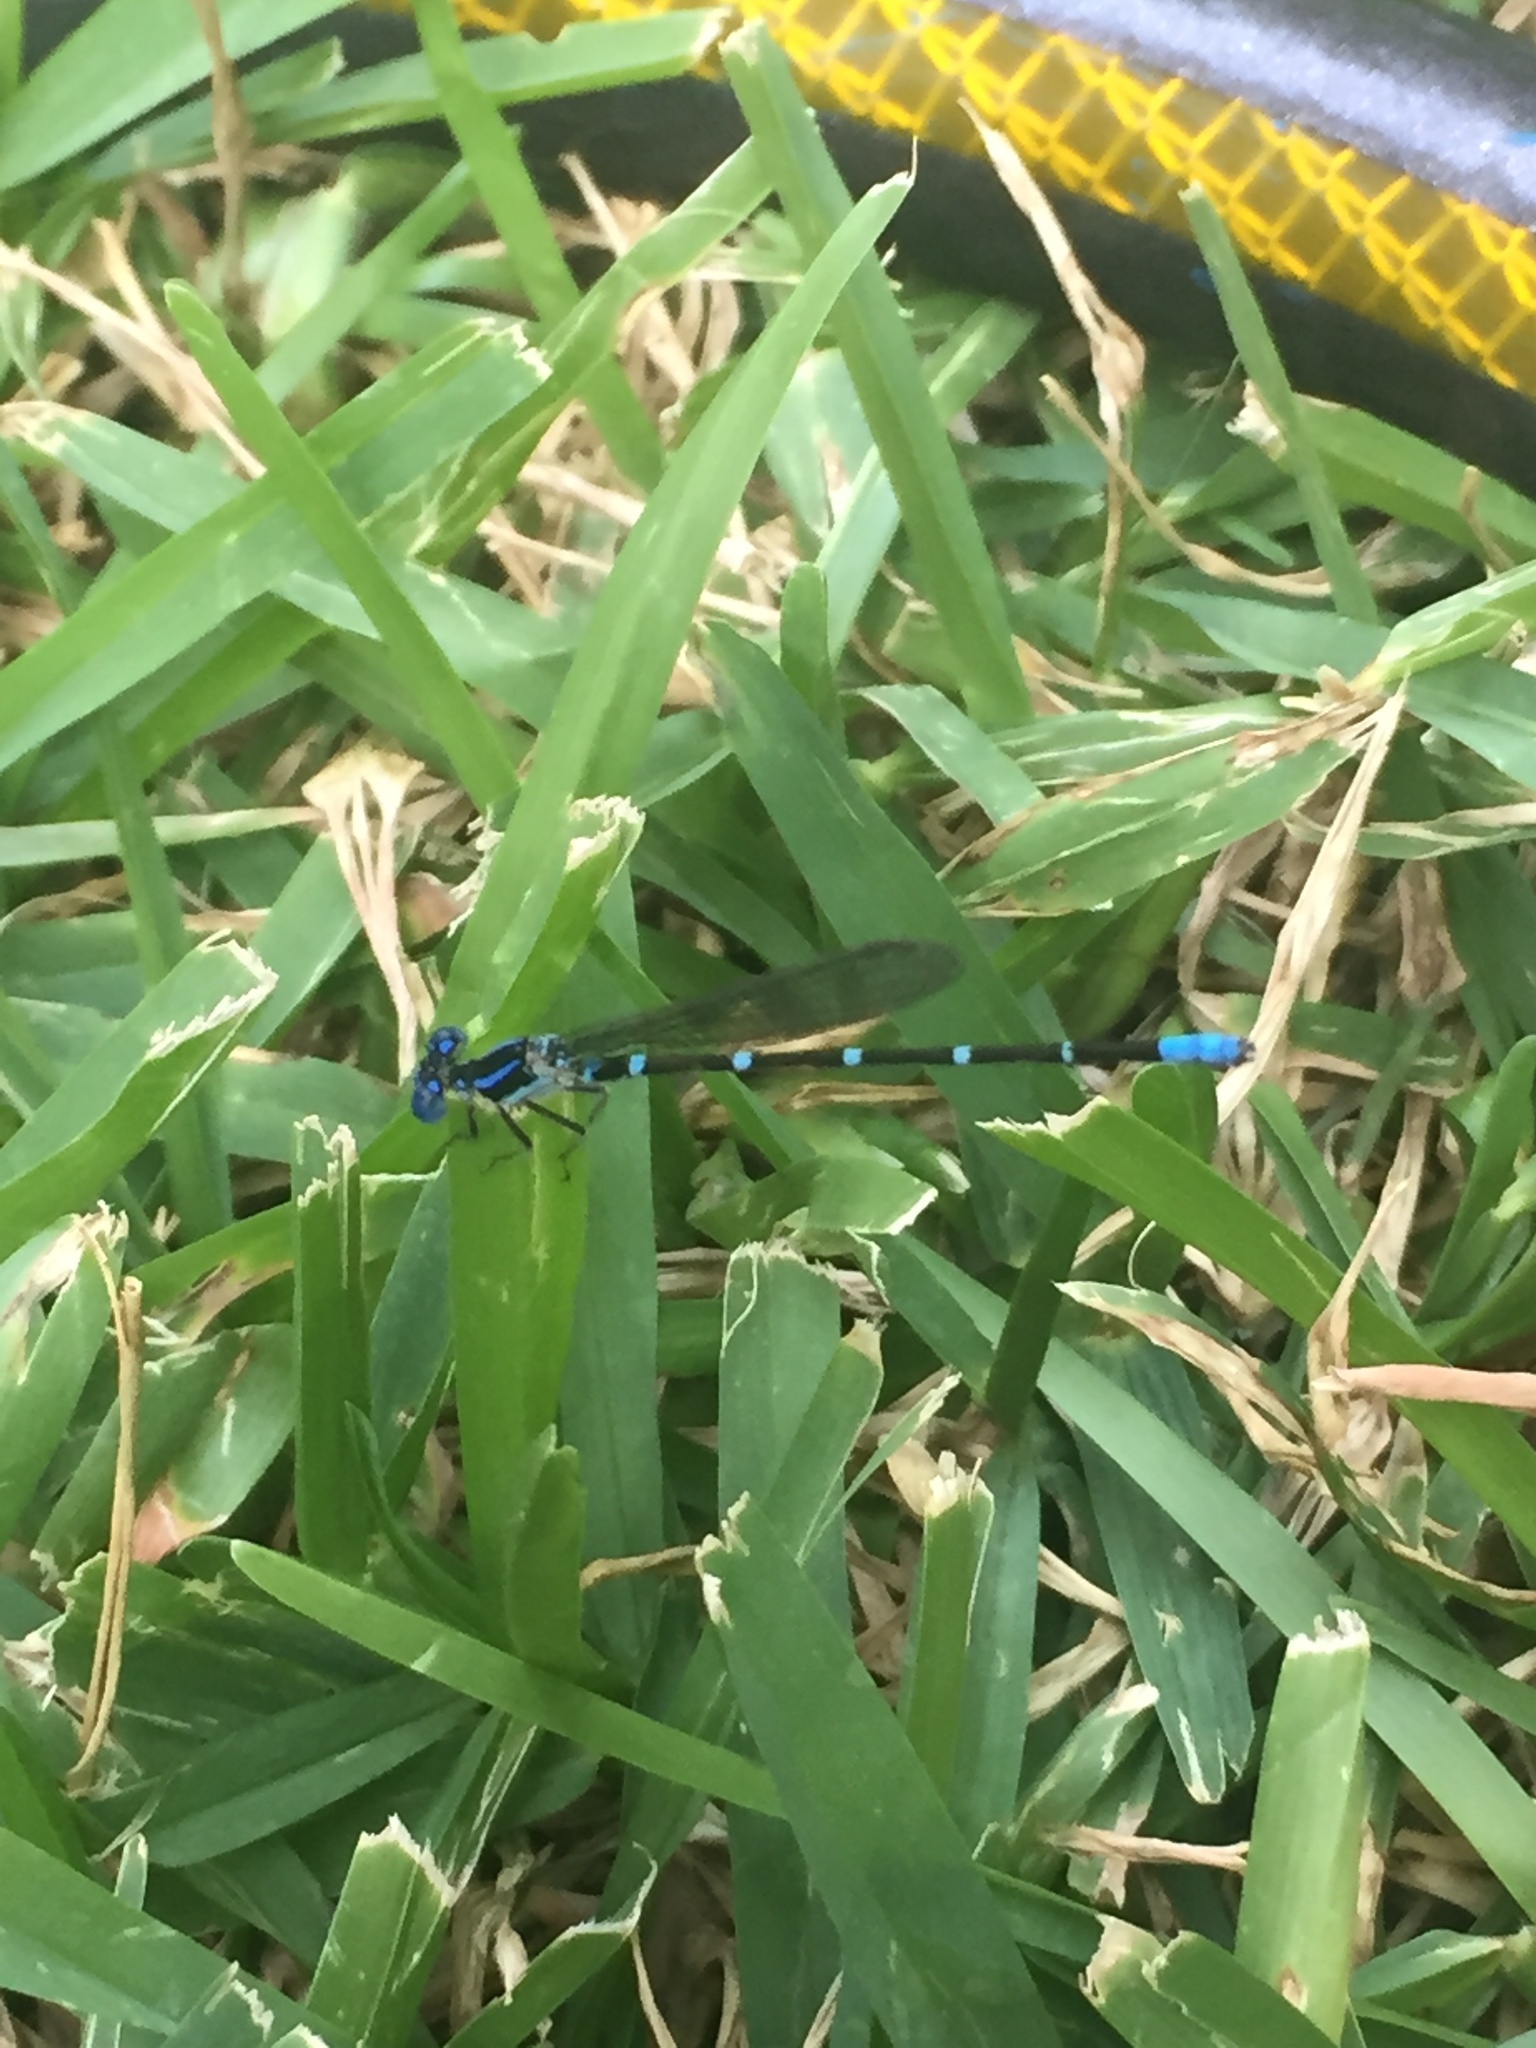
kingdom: Animalia
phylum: Arthropoda
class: Insecta
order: Odonata
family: Coenagrionidae
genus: Argia
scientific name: Argia sedula
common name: Blue-ringed dancer
